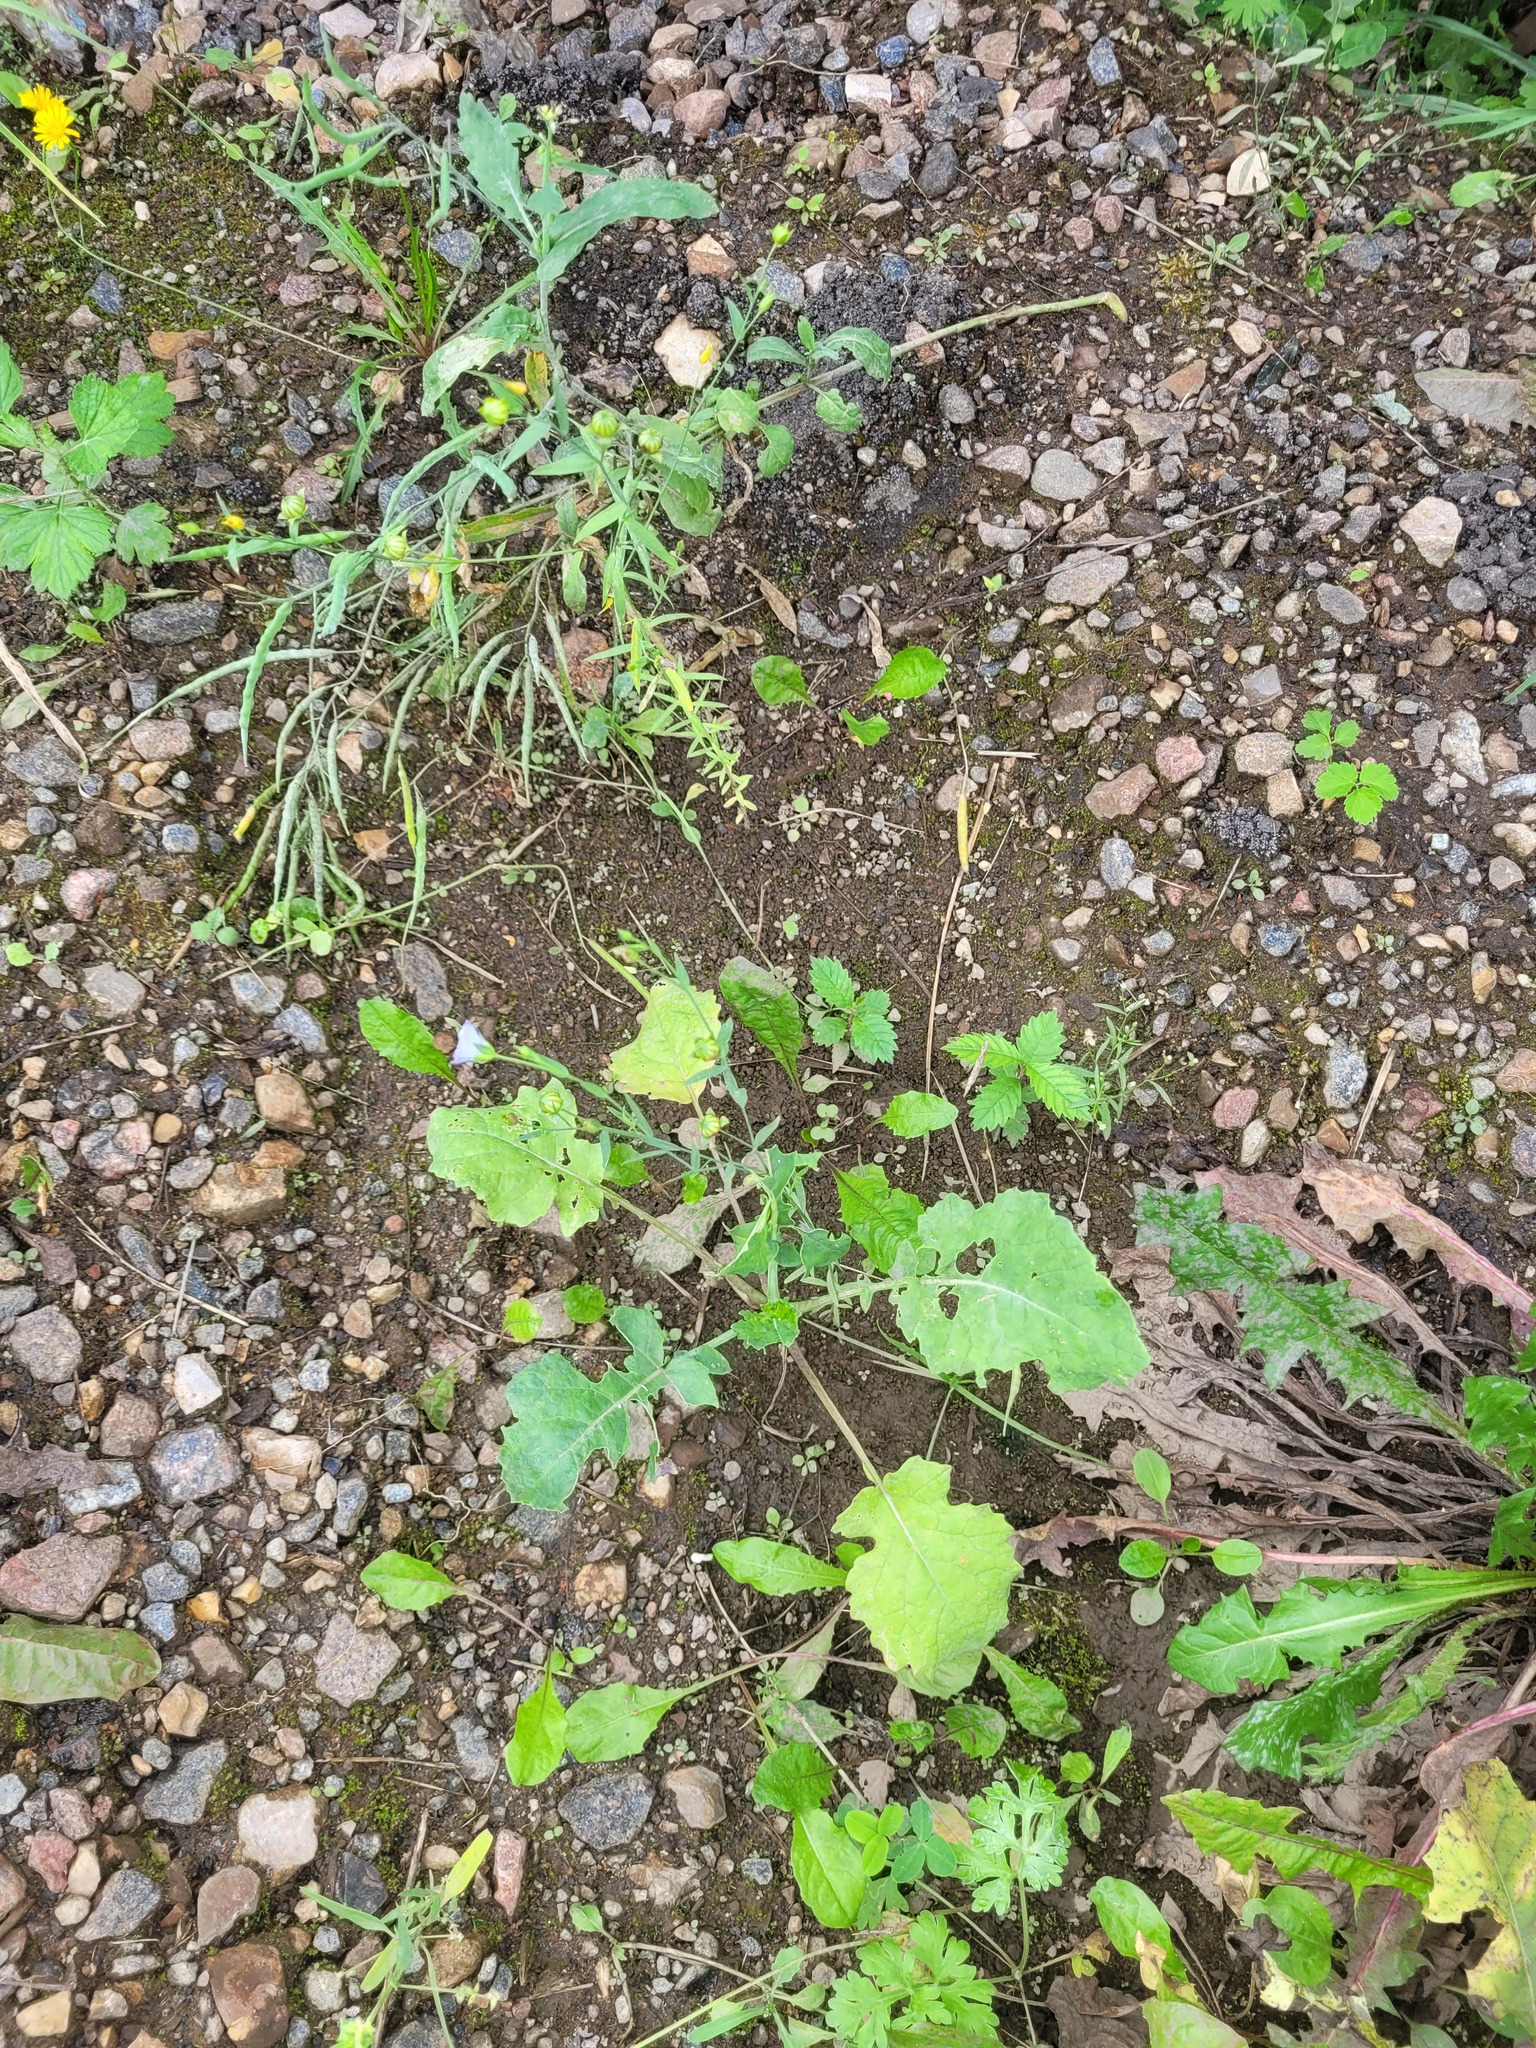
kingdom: Plantae
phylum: Tracheophyta
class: Magnoliopsida
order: Malpighiales
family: Linaceae
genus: Linum
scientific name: Linum usitatissimum
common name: Flax
